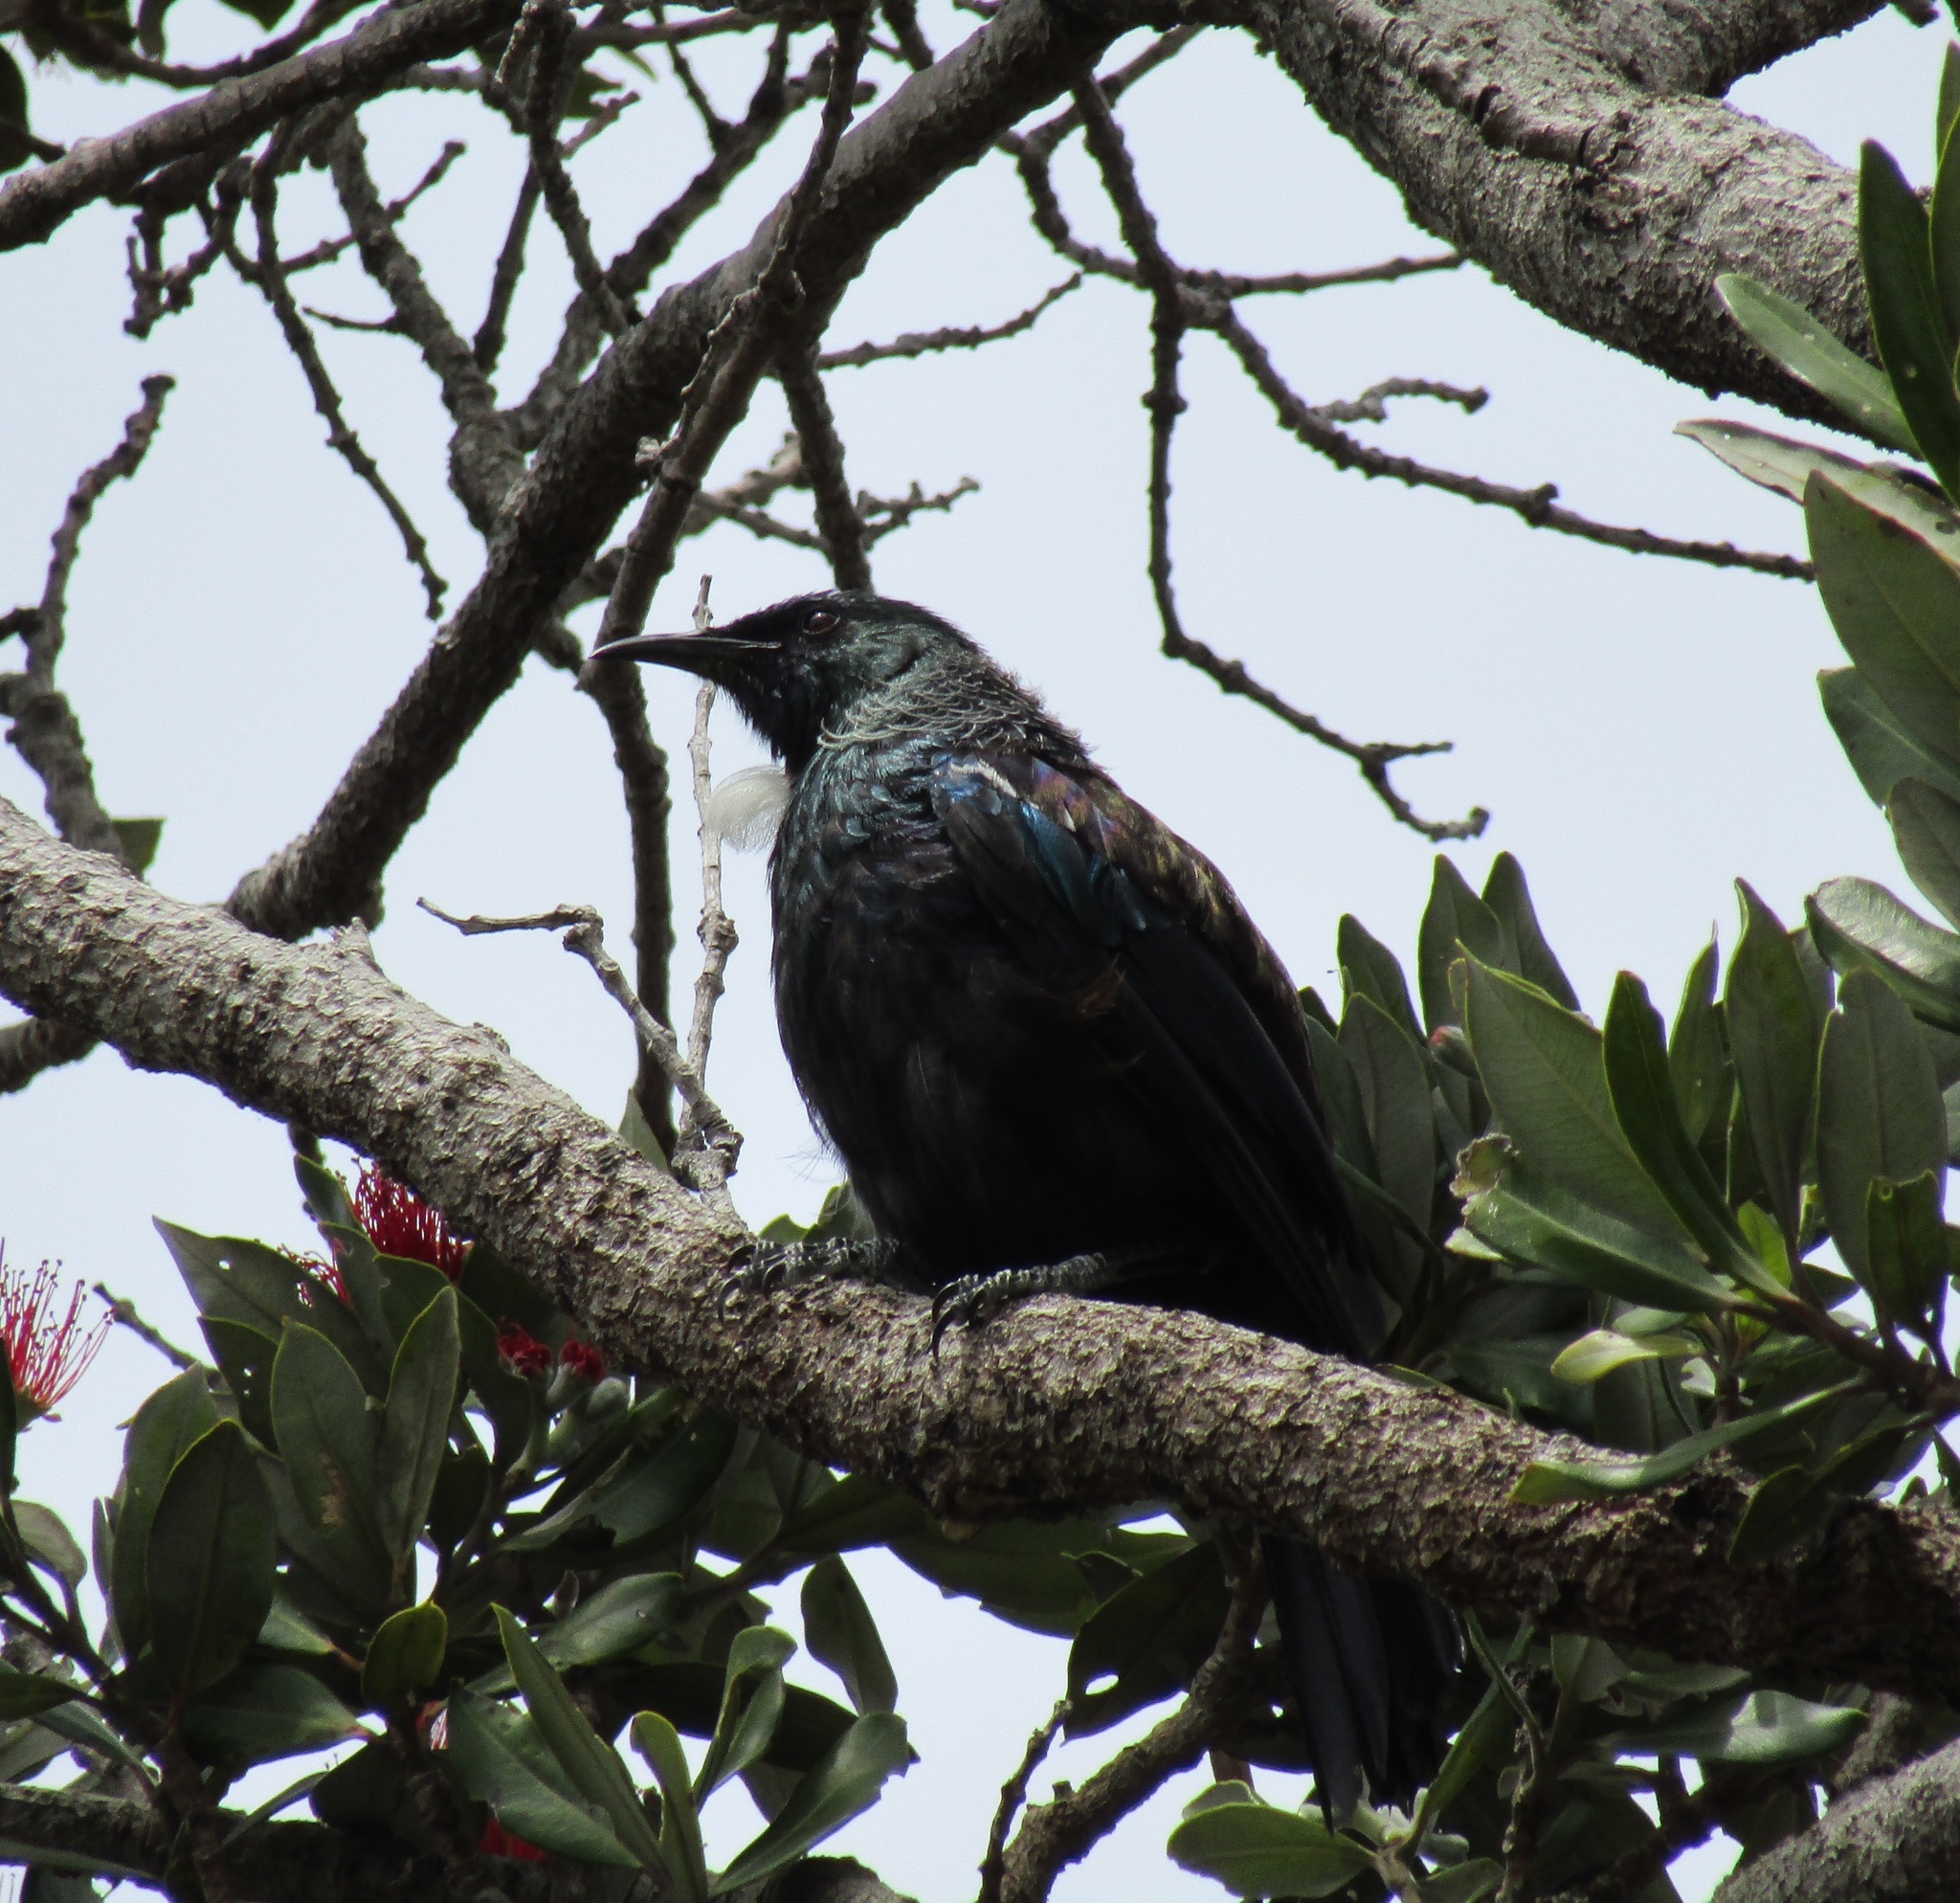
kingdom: Animalia
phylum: Chordata
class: Aves
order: Passeriformes
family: Meliphagidae
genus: Prosthemadera
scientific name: Prosthemadera novaeseelandiae
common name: Tui
